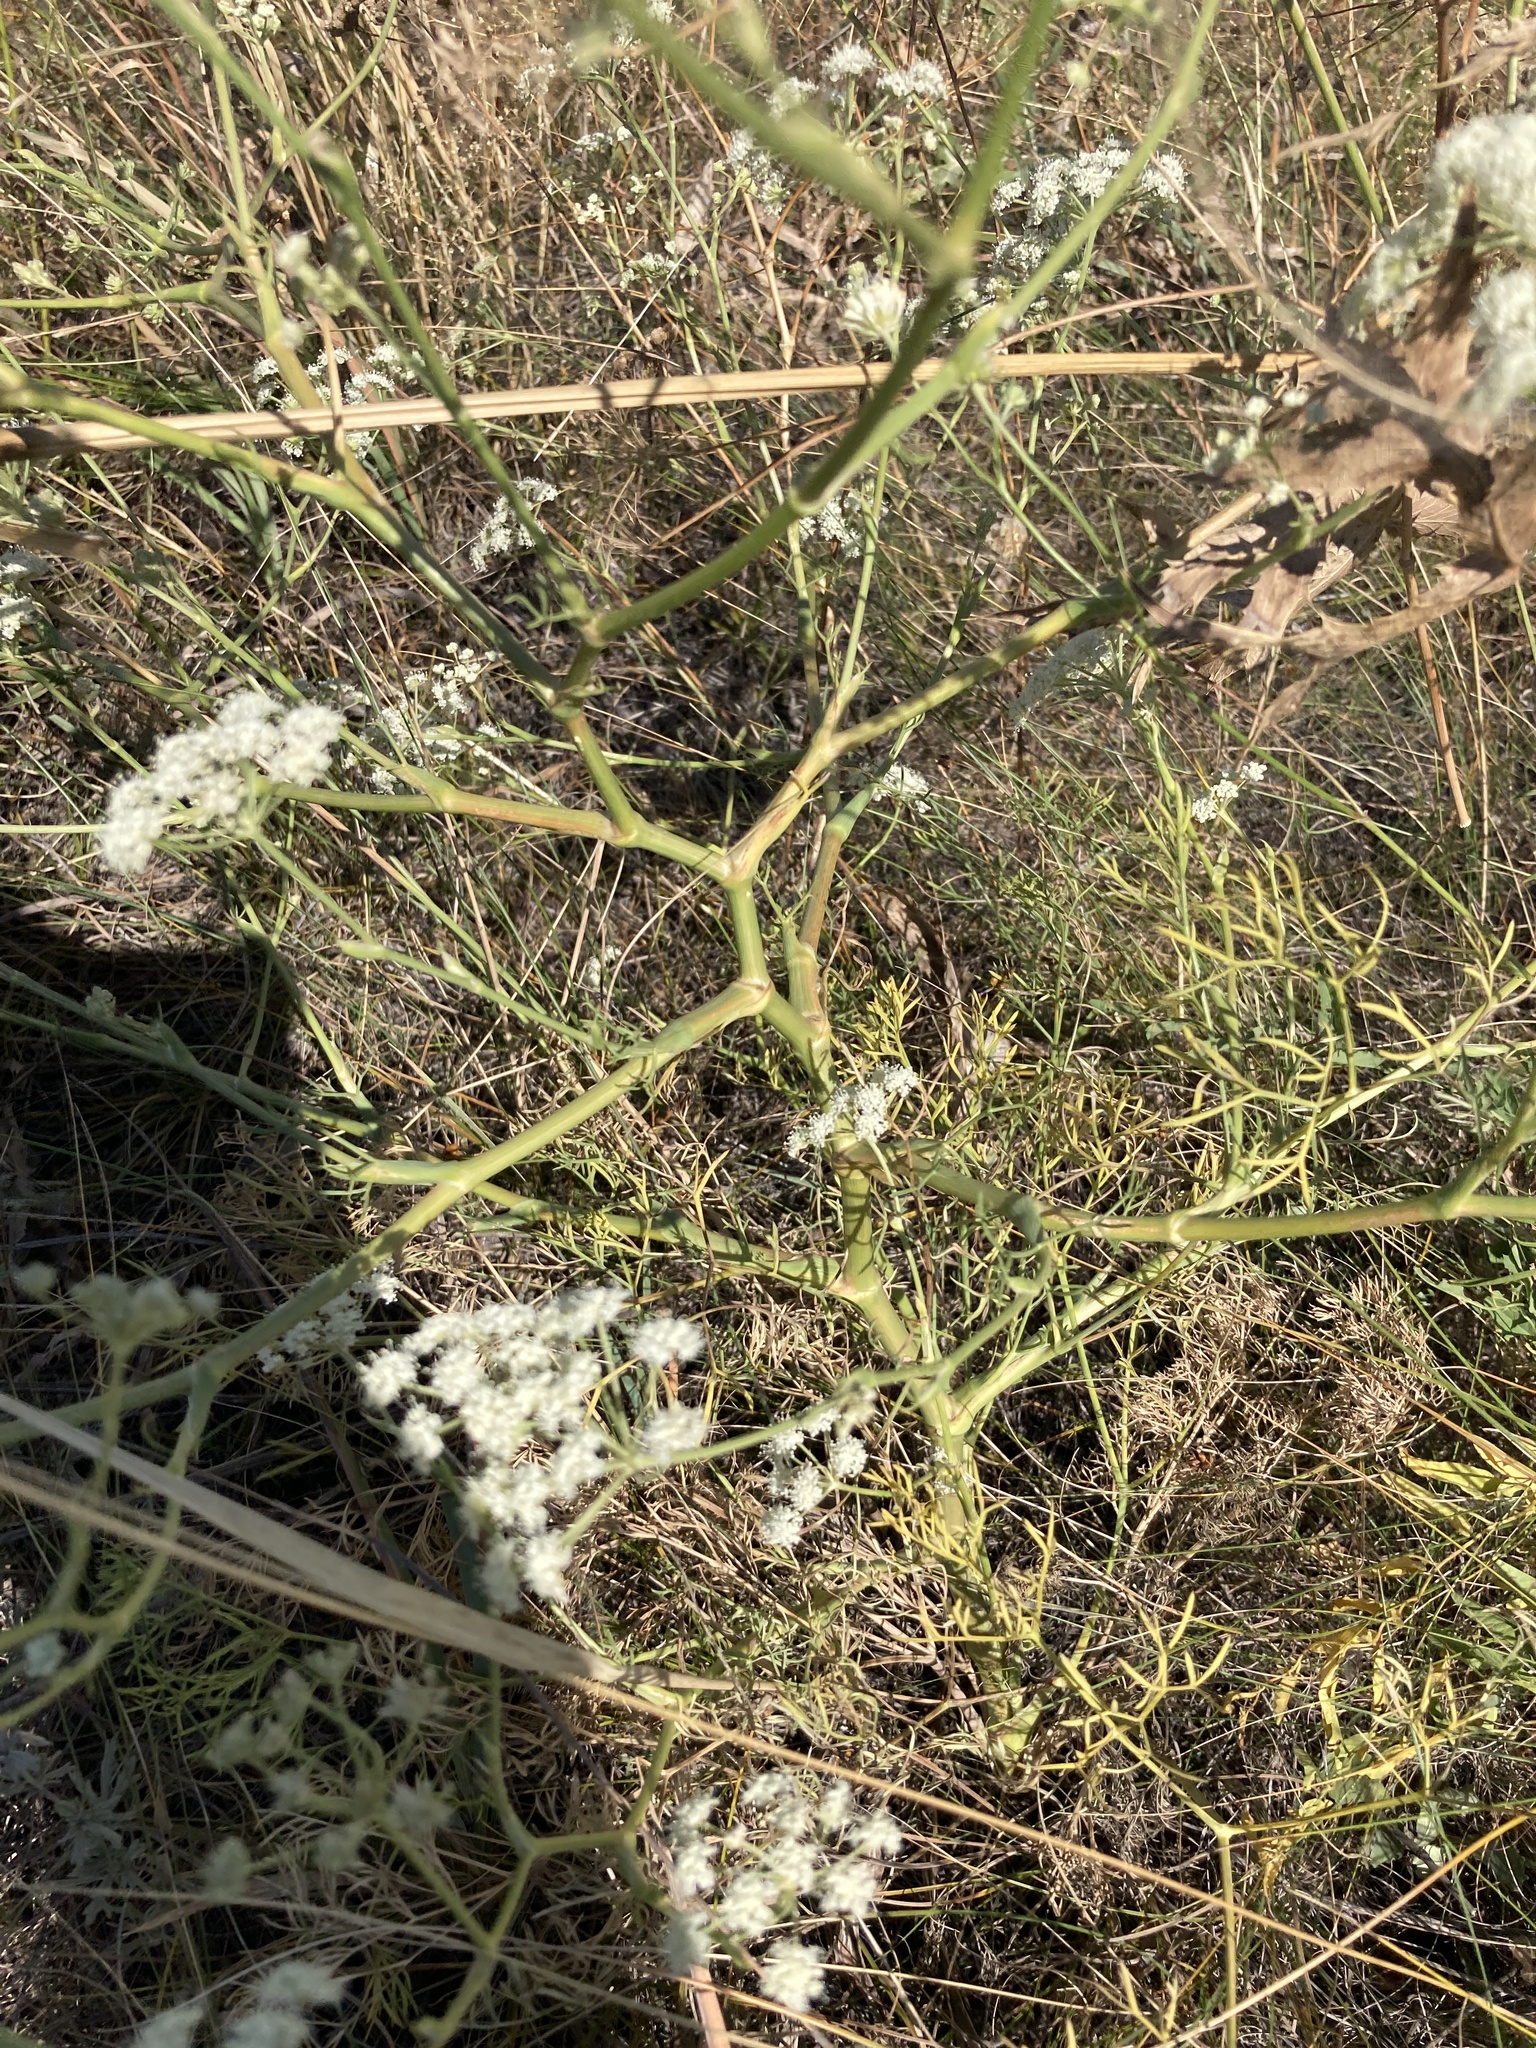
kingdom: Plantae
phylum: Tracheophyta
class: Magnoliopsida
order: Apiales
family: Apiaceae
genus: Seseli
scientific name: Seseli arenarium
